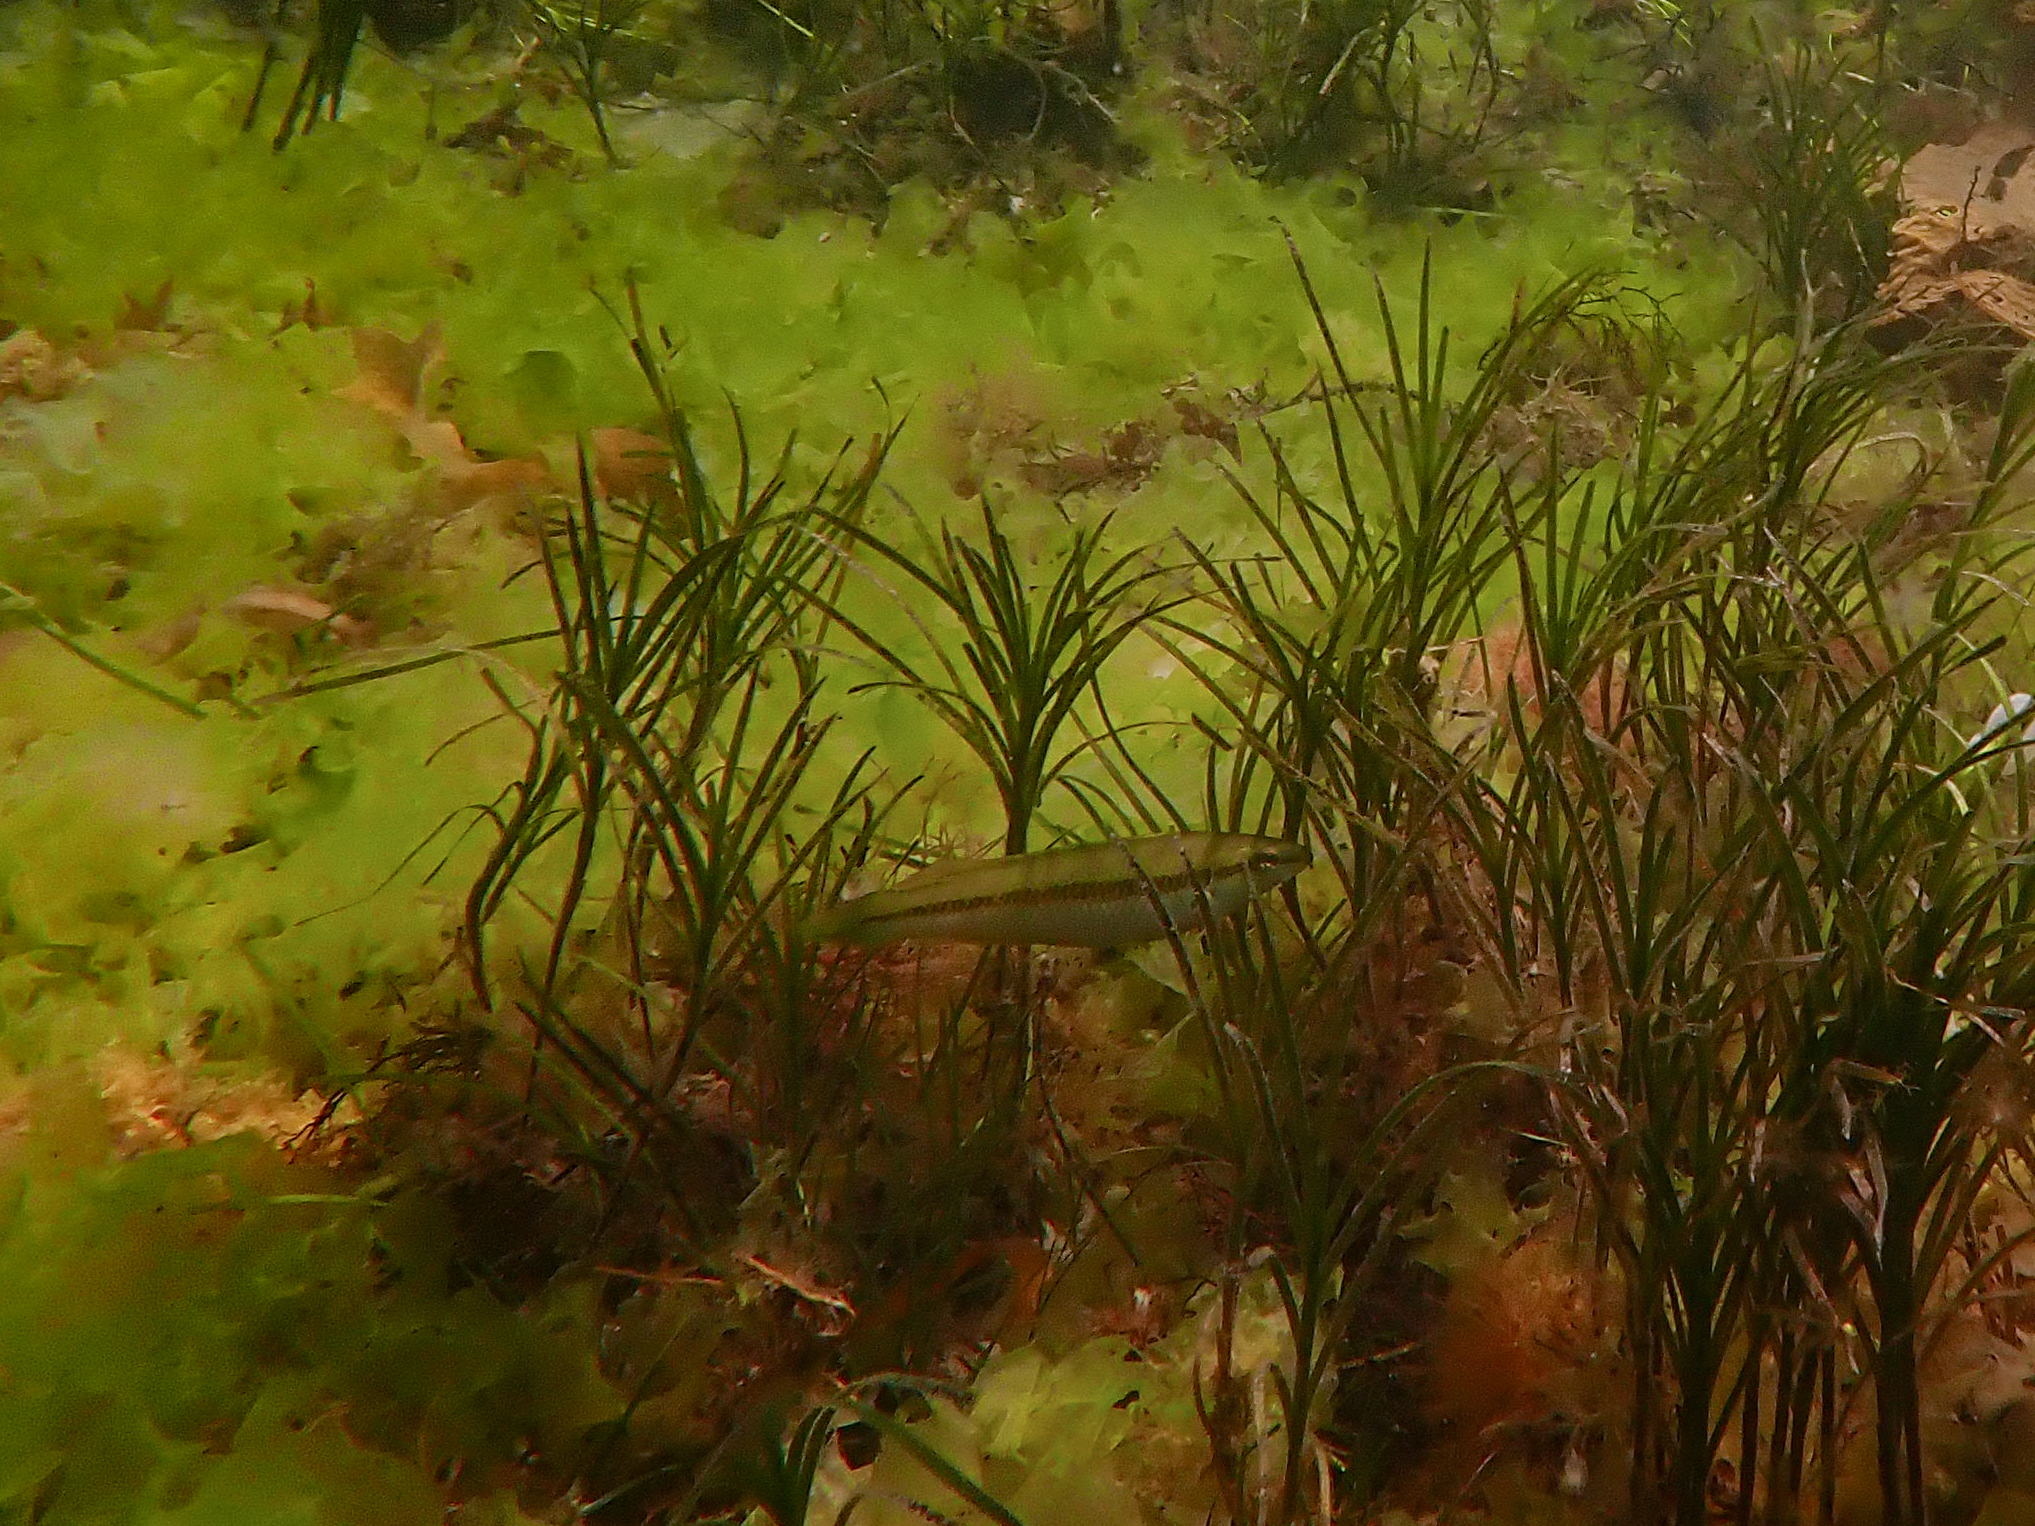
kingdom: Animalia
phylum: Chordata
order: Perciformes
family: Odacidae
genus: Neoodax
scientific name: Neoodax balteatus
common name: Ground mullet
